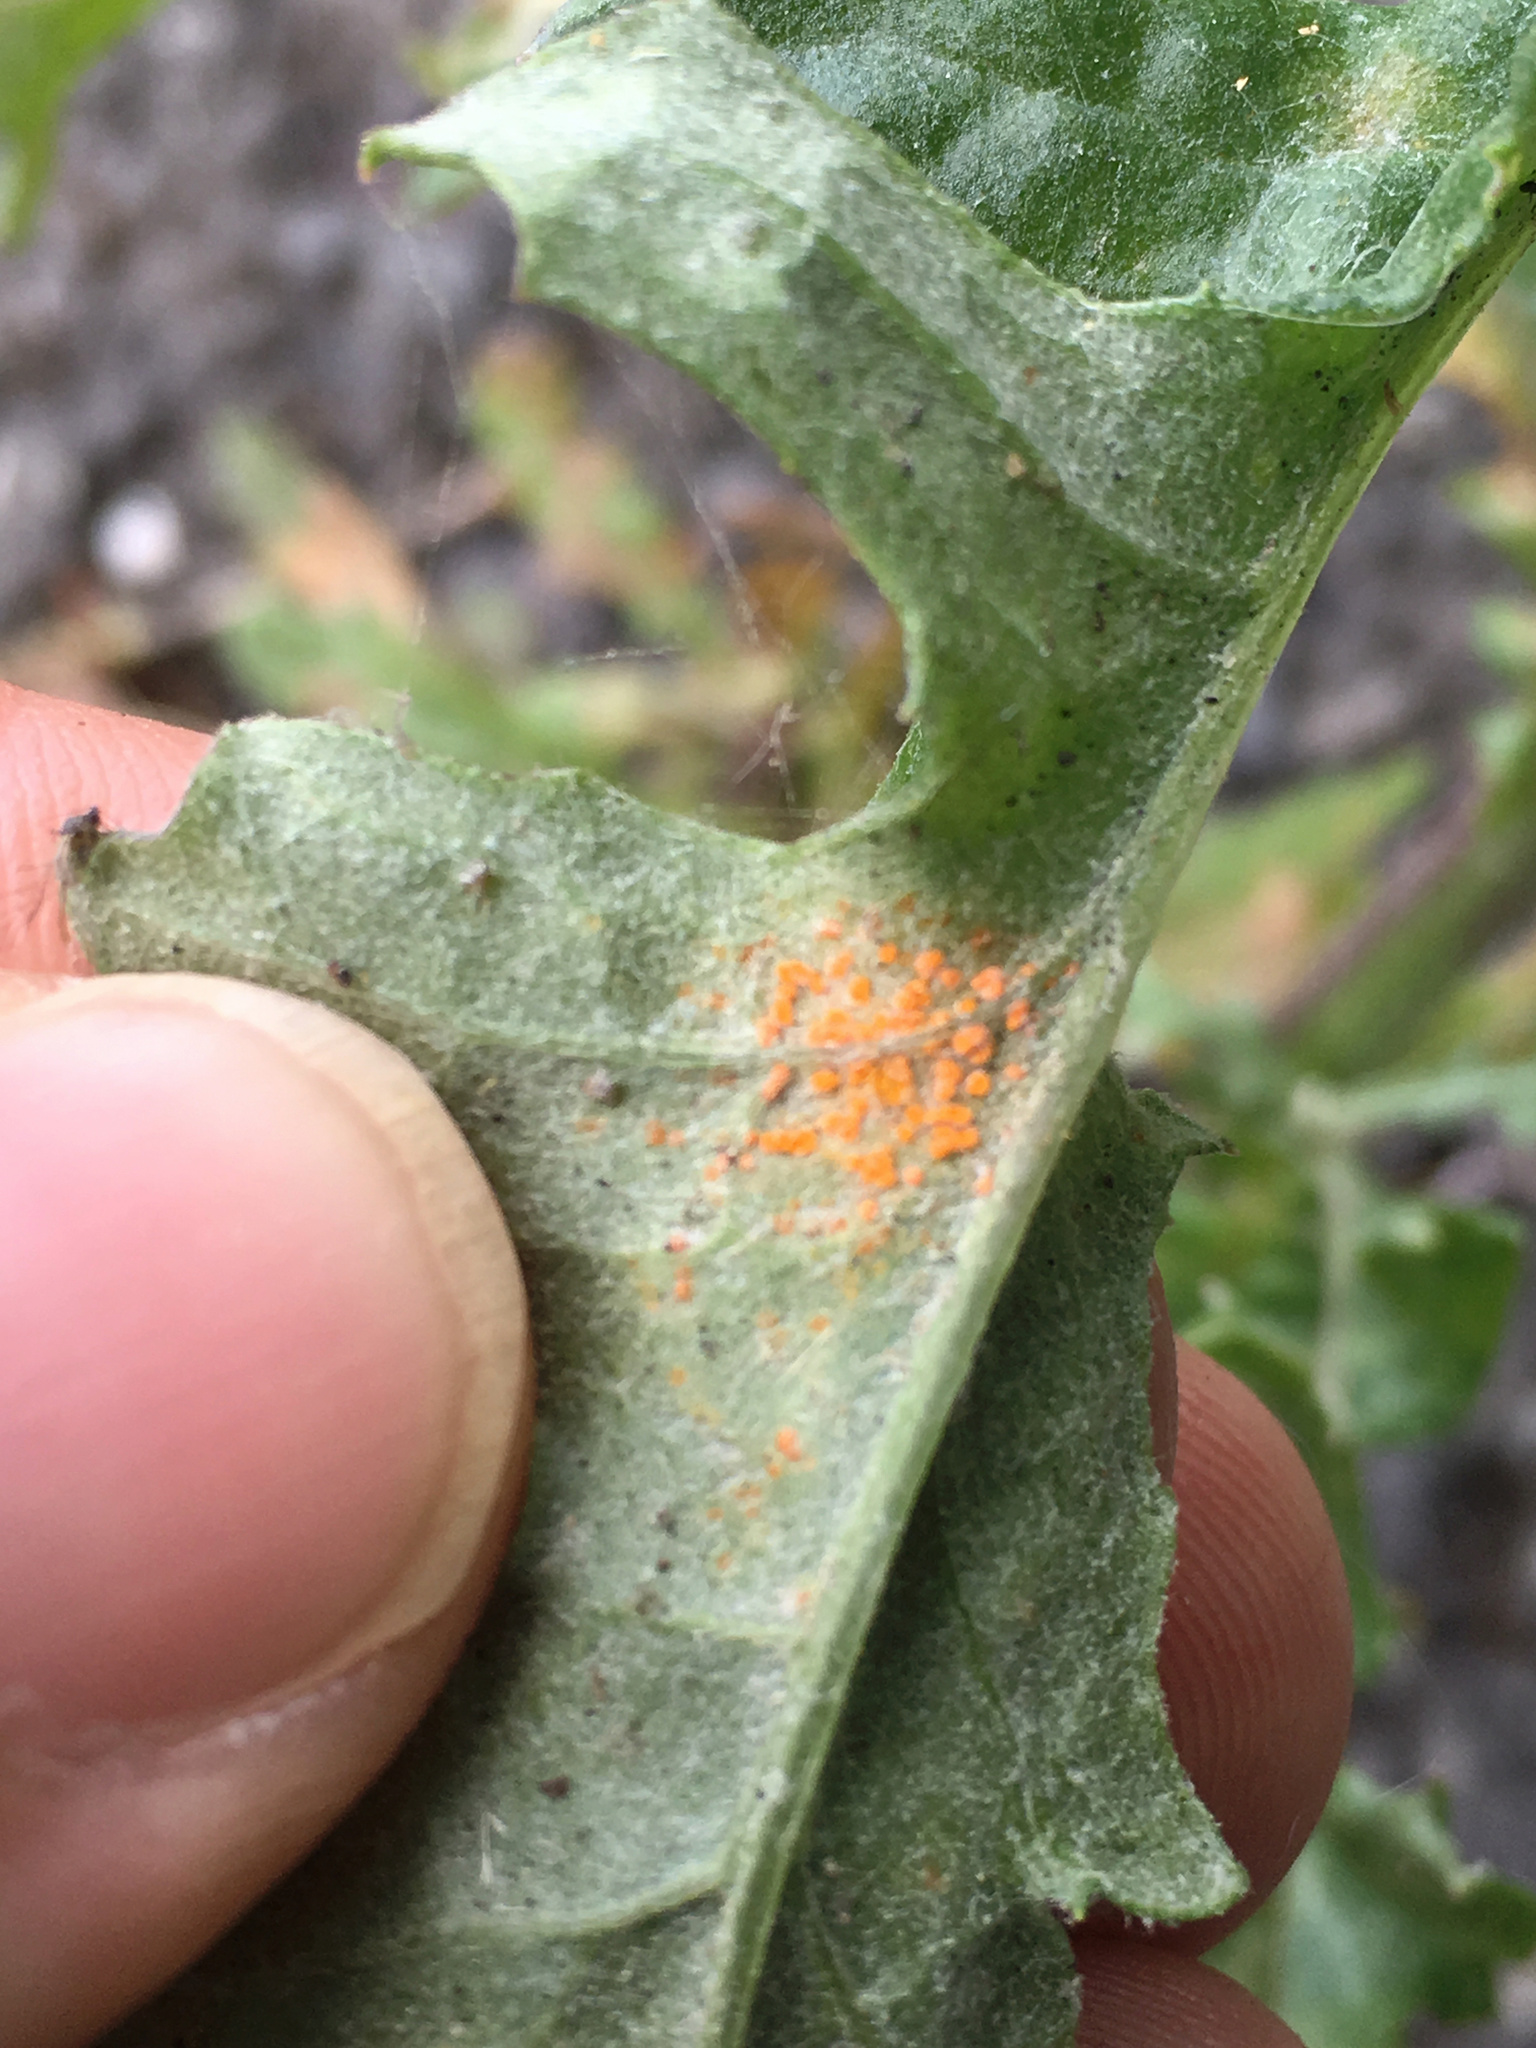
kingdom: Fungi
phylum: Basidiomycota
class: Pucciniomycetes
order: Pucciniales
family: Coleosporiaceae
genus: Coleosporium
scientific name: Coleosporium tussilaginis
